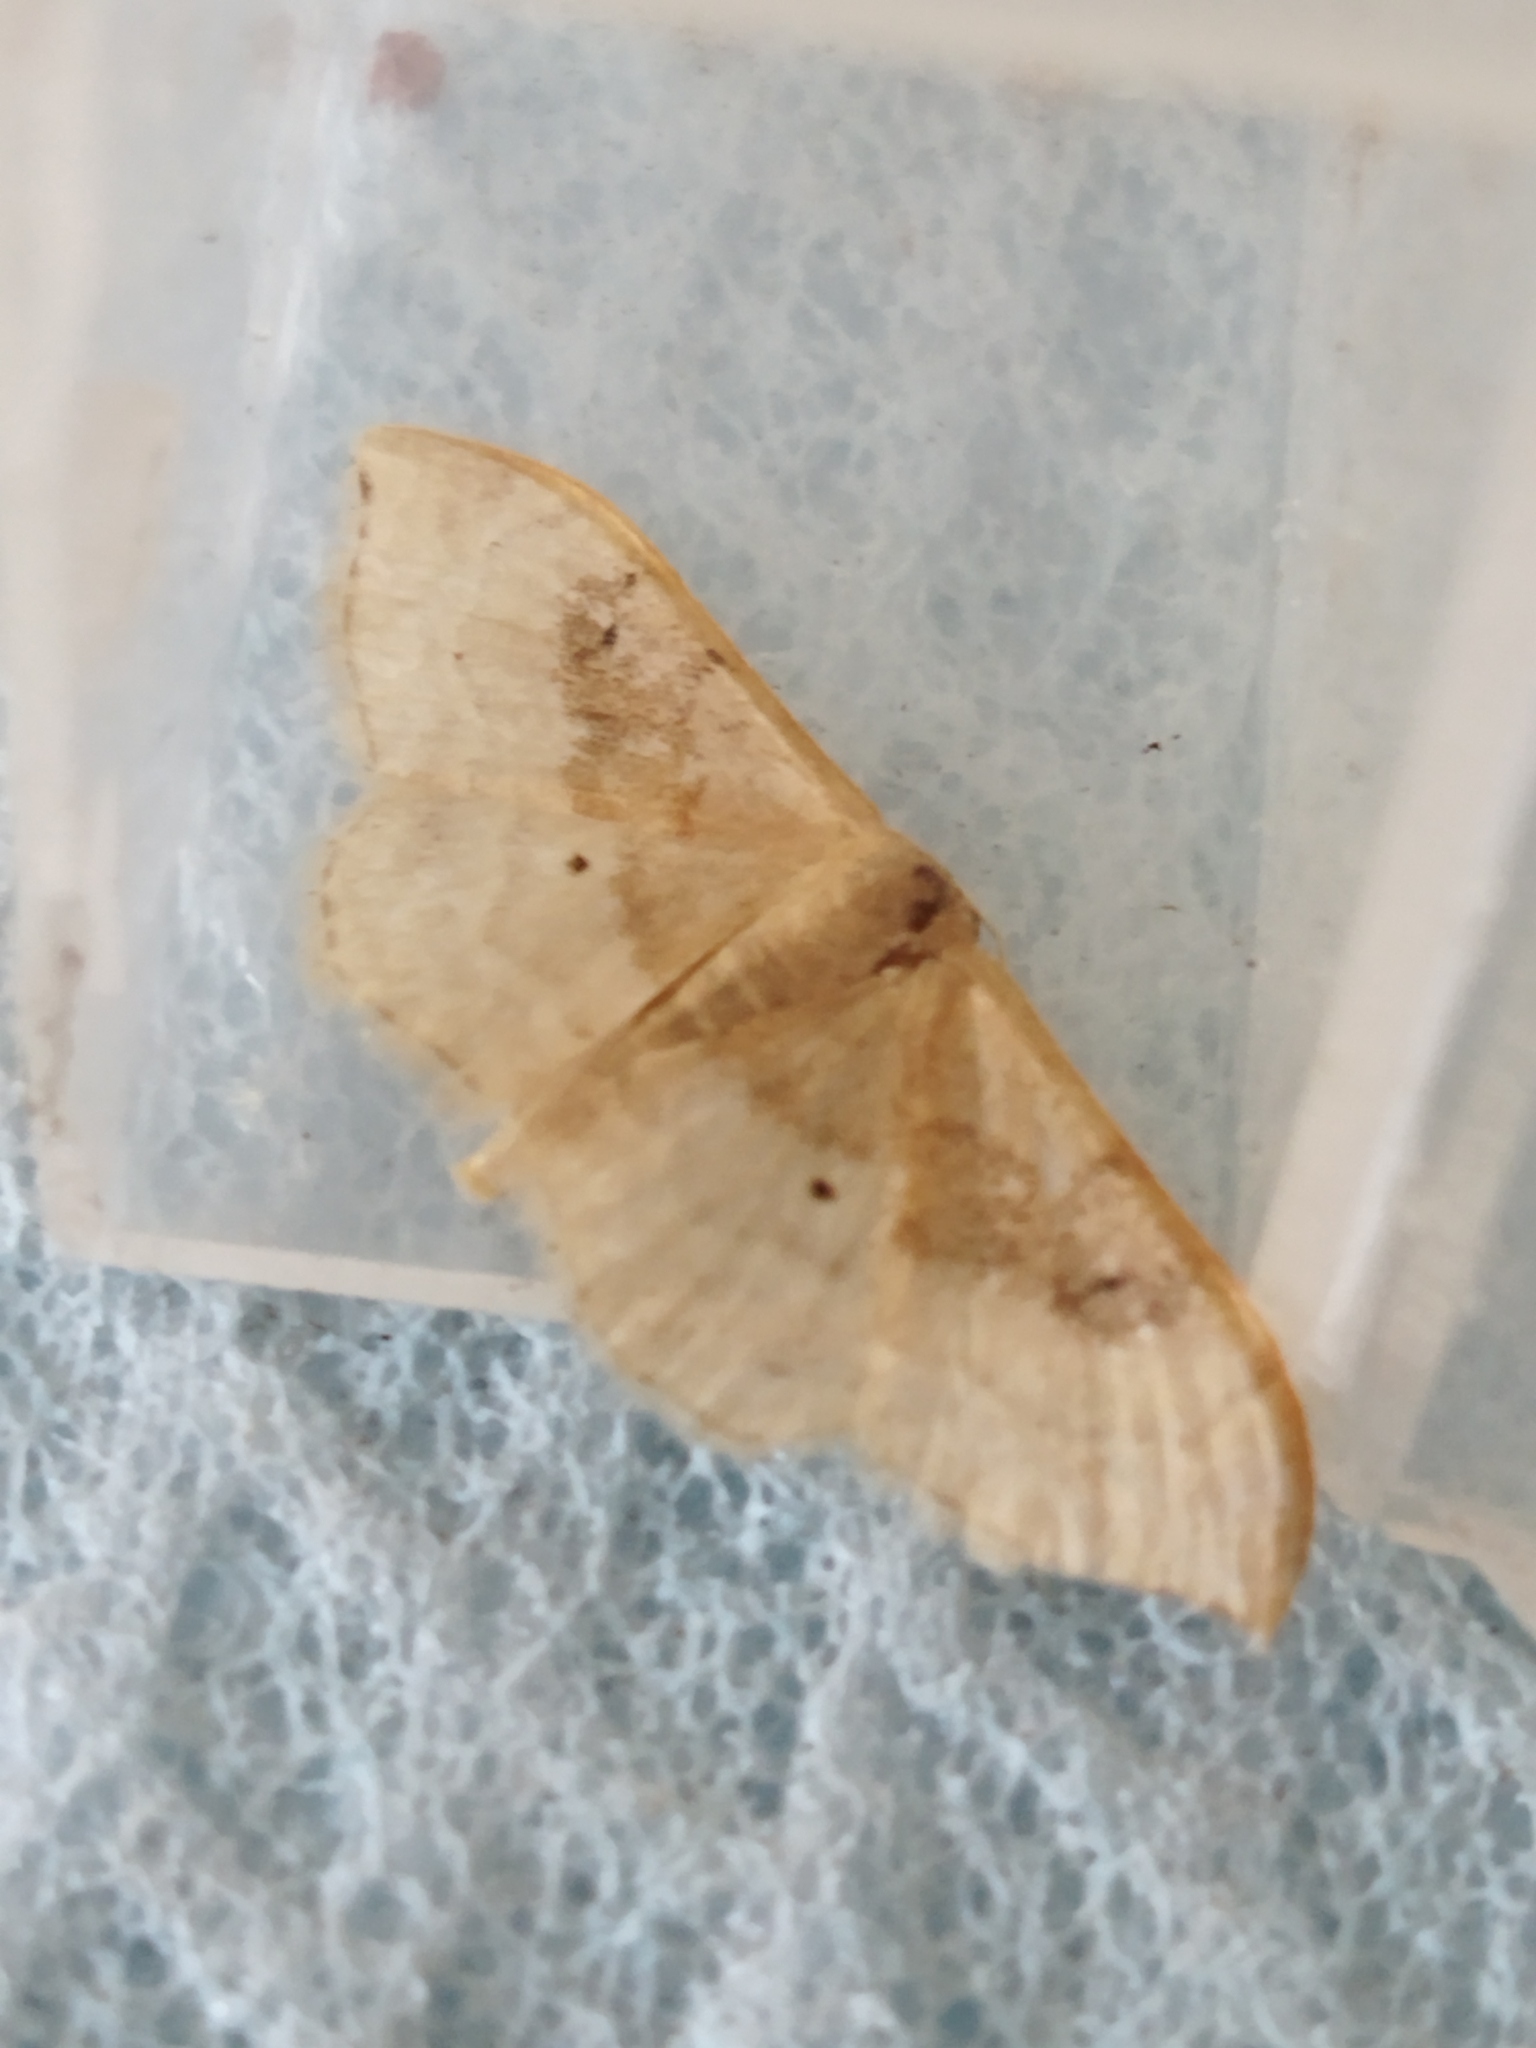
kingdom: Animalia
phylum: Arthropoda
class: Insecta
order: Lepidoptera
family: Geometridae
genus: Idaea
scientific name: Idaea degeneraria
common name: Portland ribbon wave
